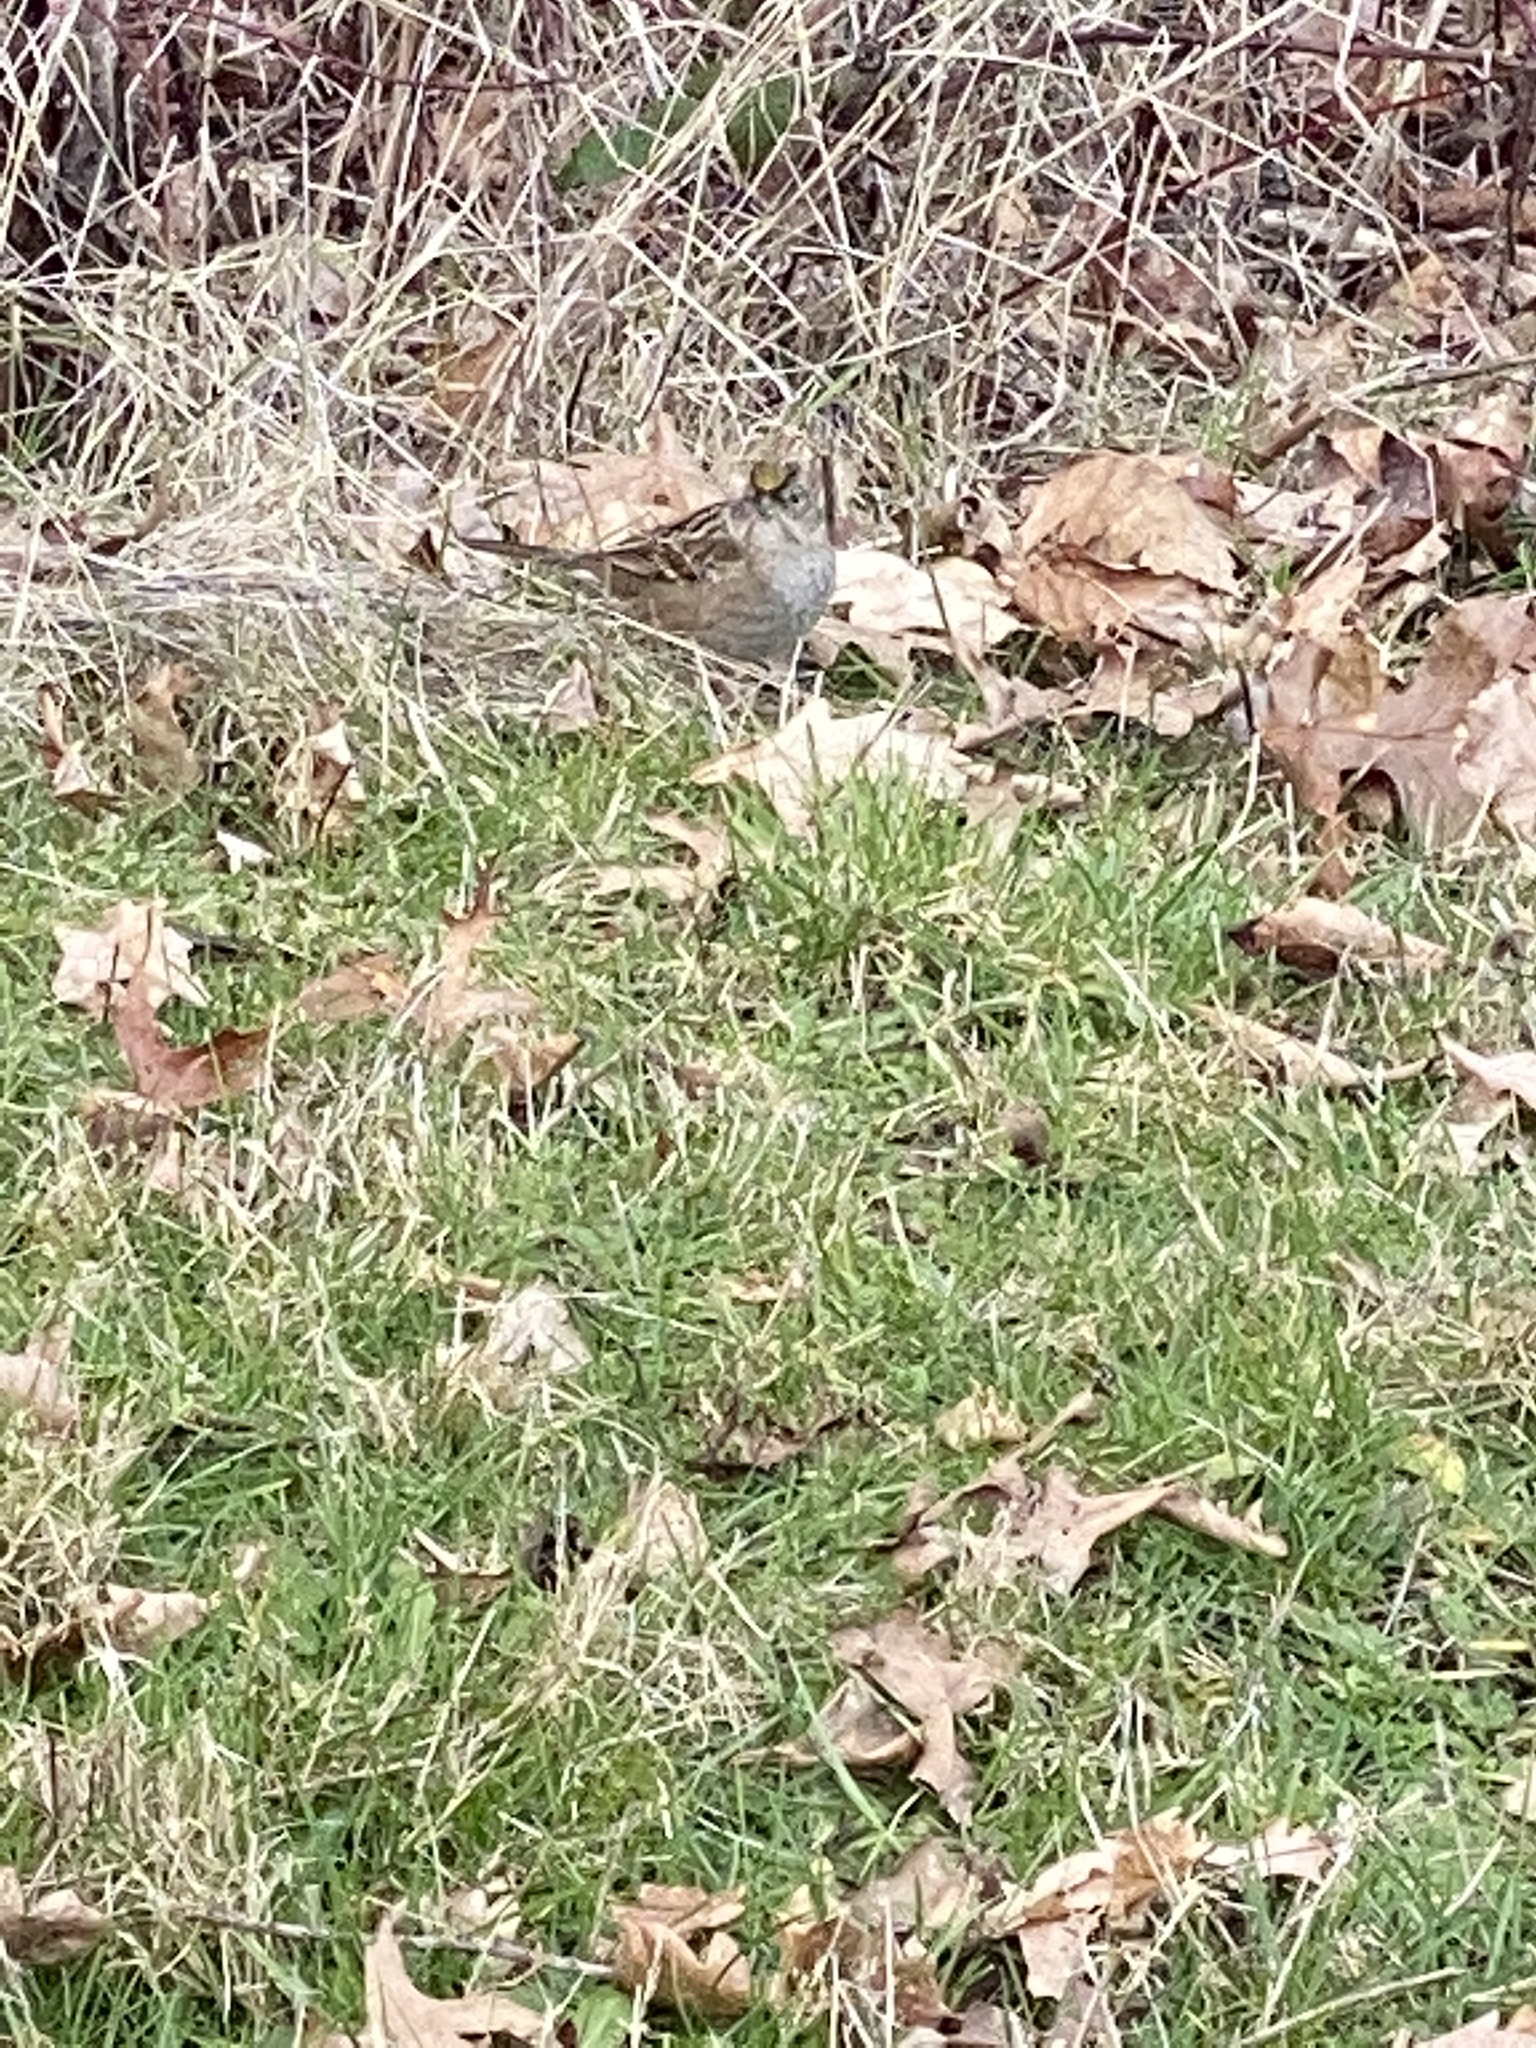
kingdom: Animalia
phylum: Chordata
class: Aves
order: Passeriformes
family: Passerellidae
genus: Zonotrichia
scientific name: Zonotrichia atricapilla
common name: Golden-crowned sparrow
